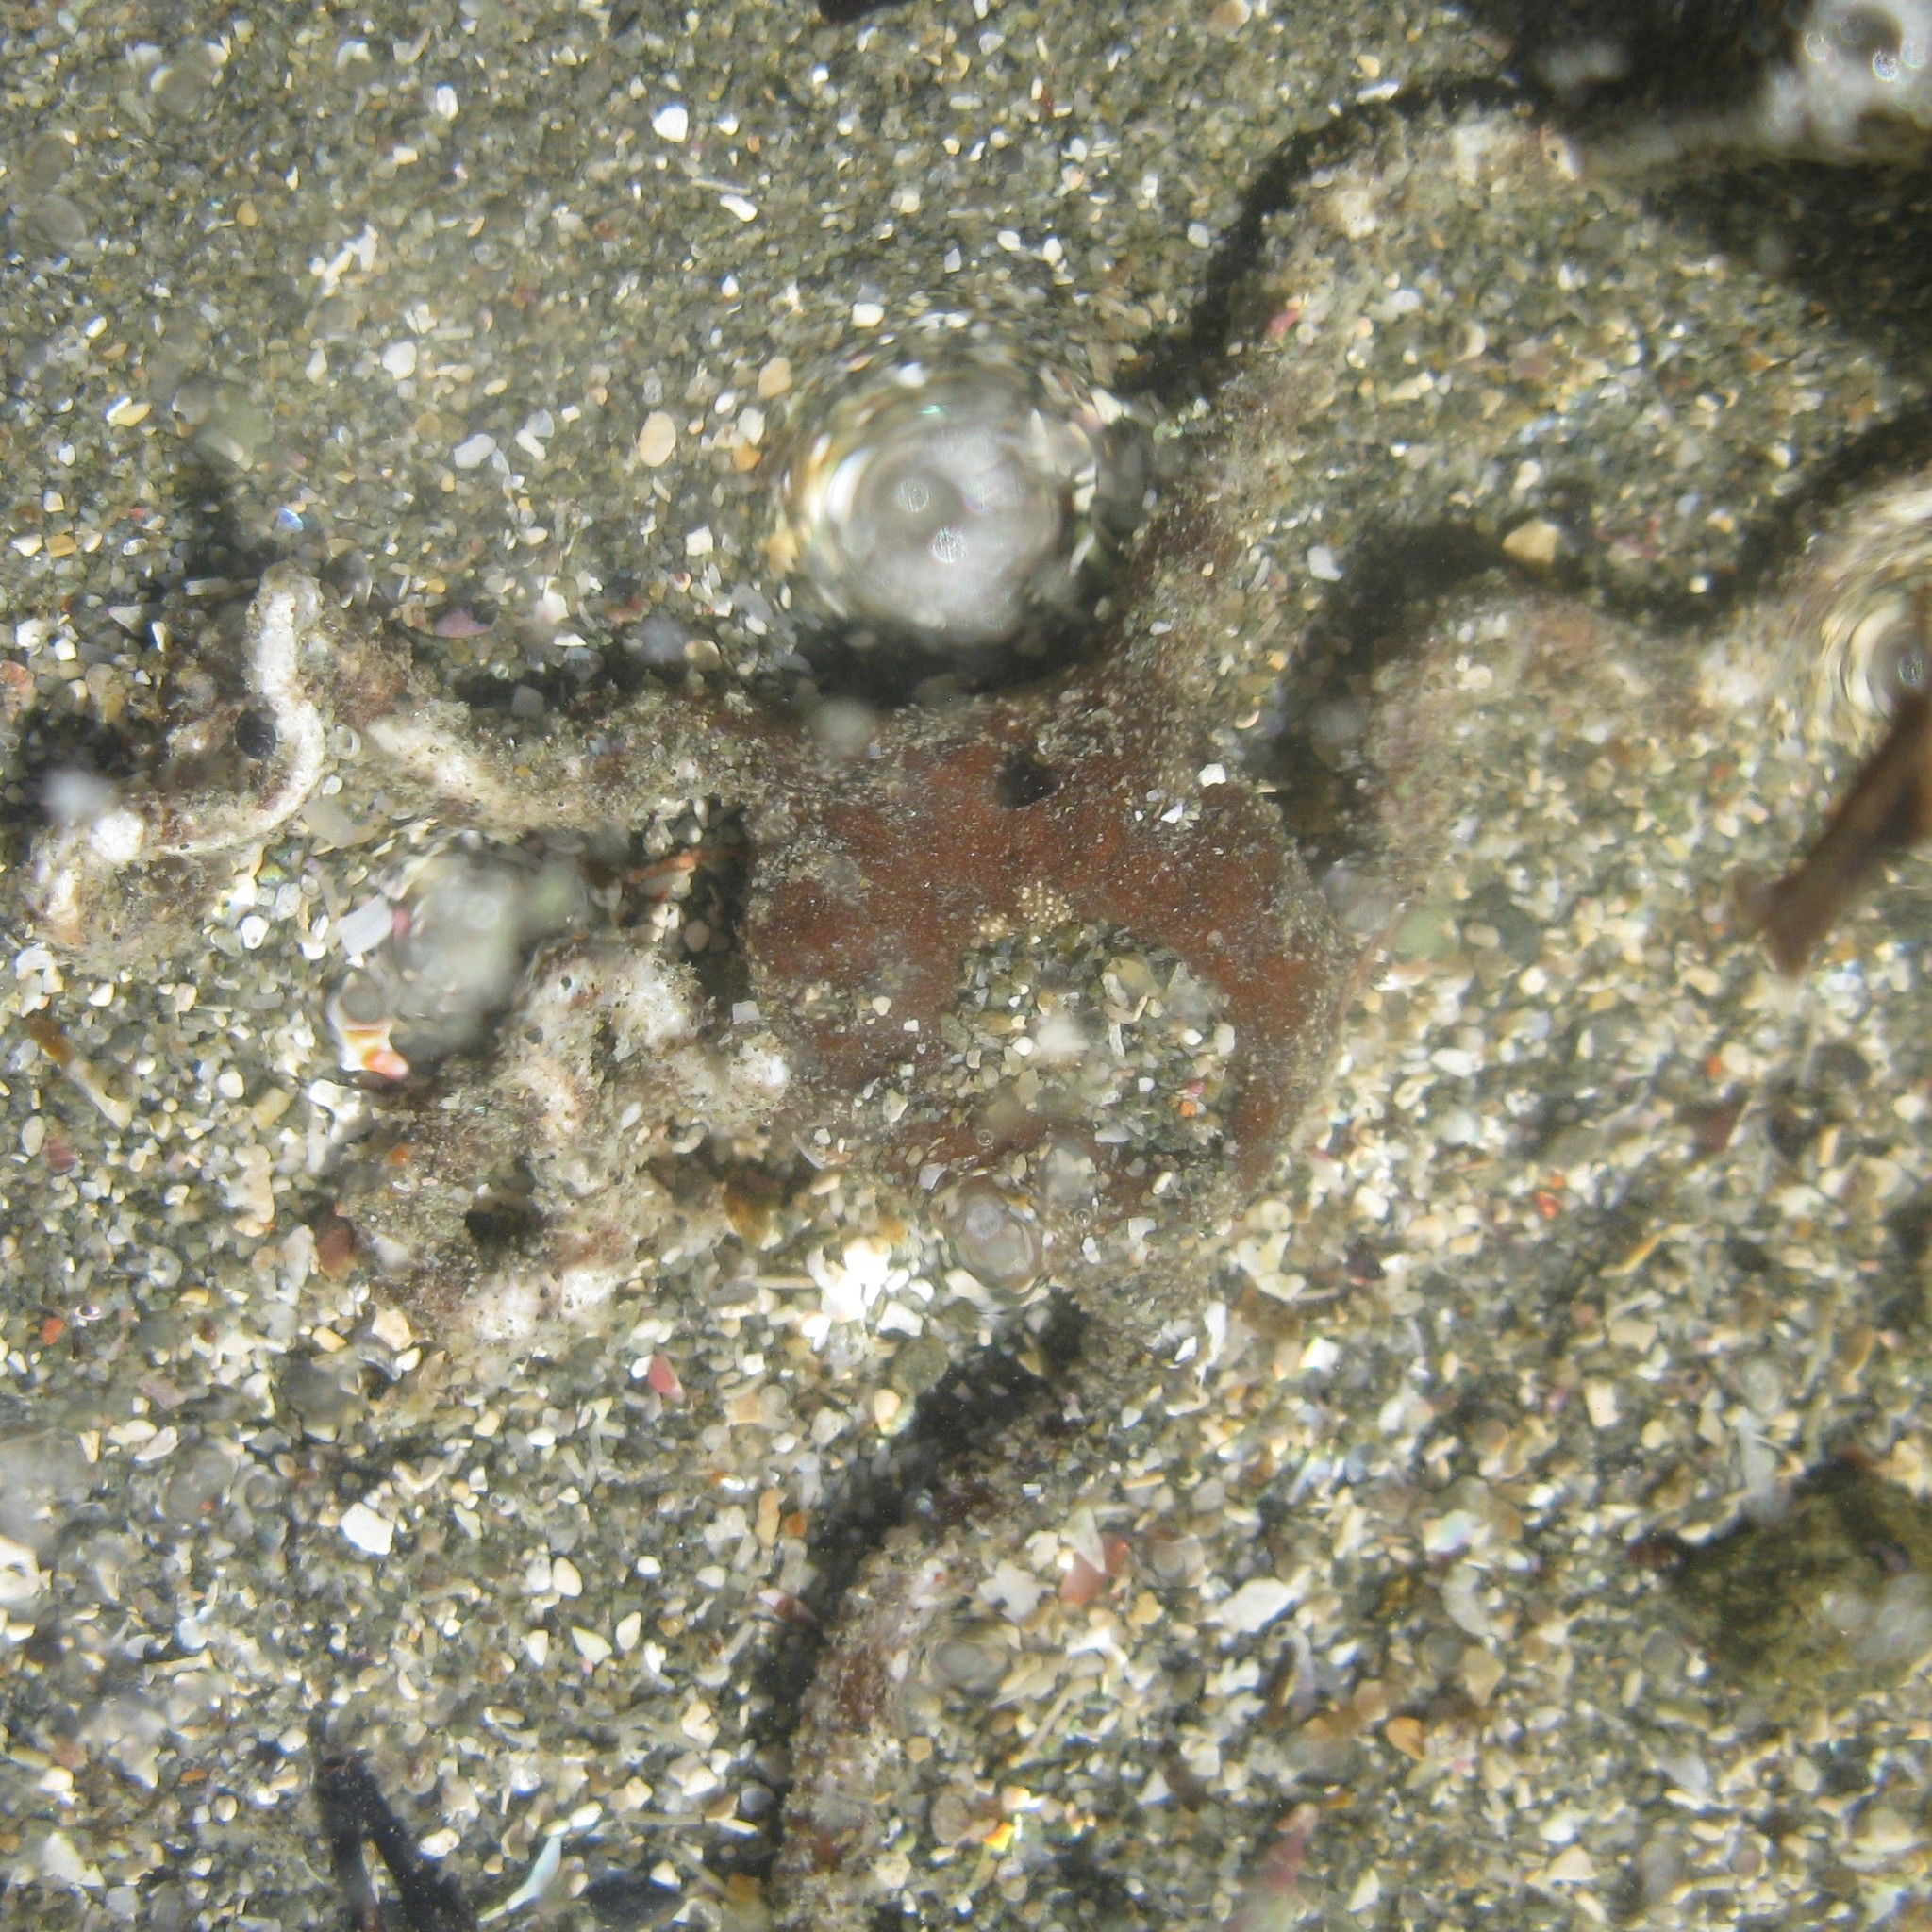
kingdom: Animalia
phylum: Echinodermata
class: Ophiuroidea
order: Ophiacanthida
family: Ophiomyxidae
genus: Ophiomyxa
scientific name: Ophiomyxa brevirima
